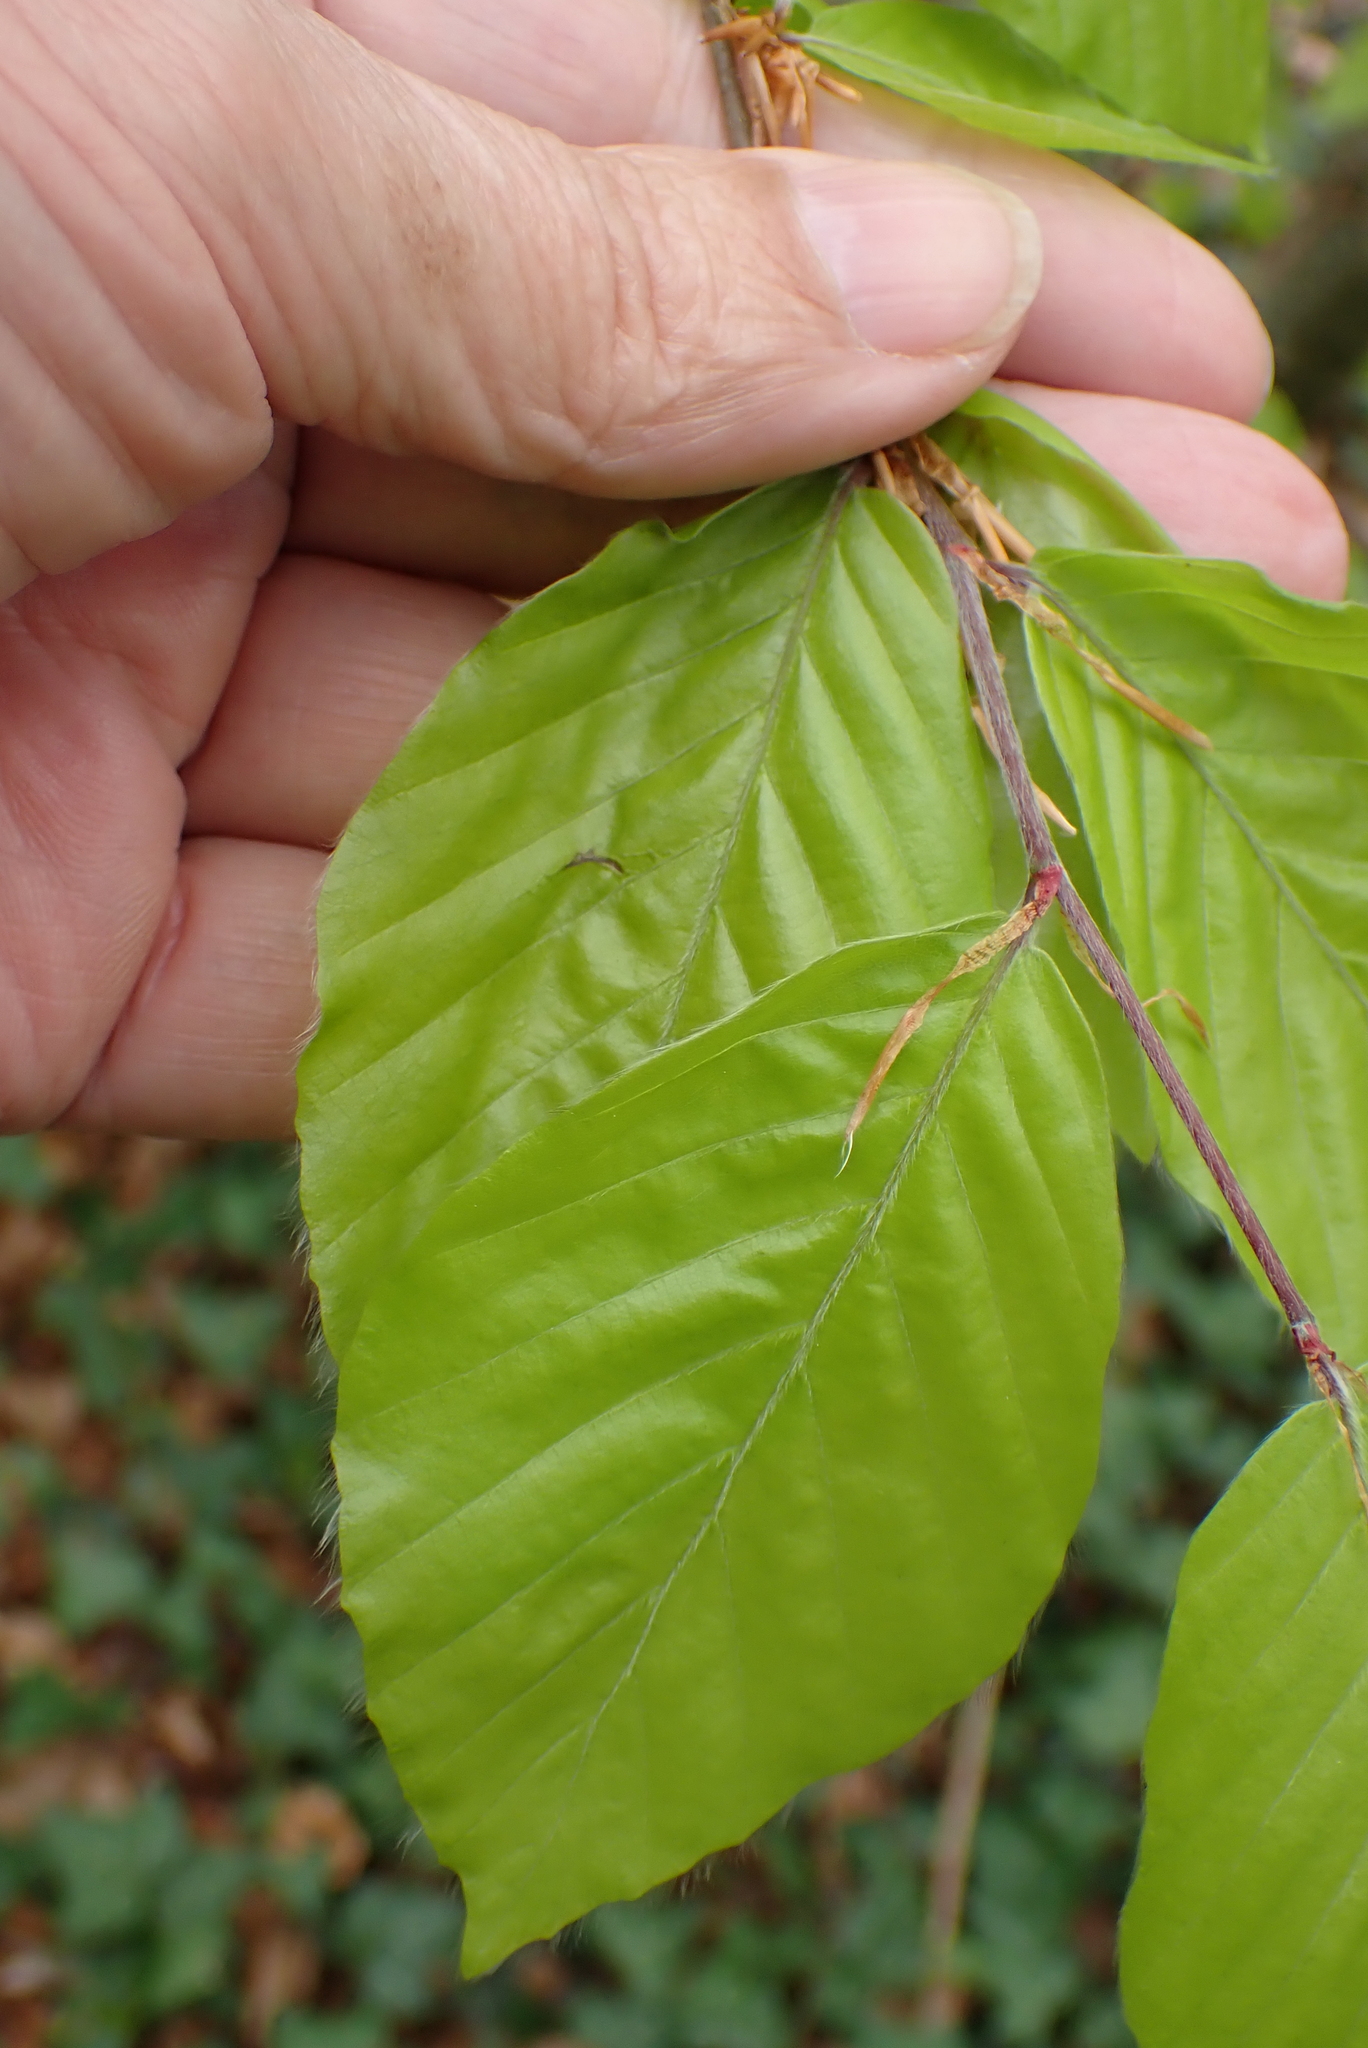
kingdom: Plantae
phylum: Tracheophyta
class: Magnoliopsida
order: Fagales
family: Fagaceae
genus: Fagus
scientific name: Fagus sylvatica
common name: Beech
